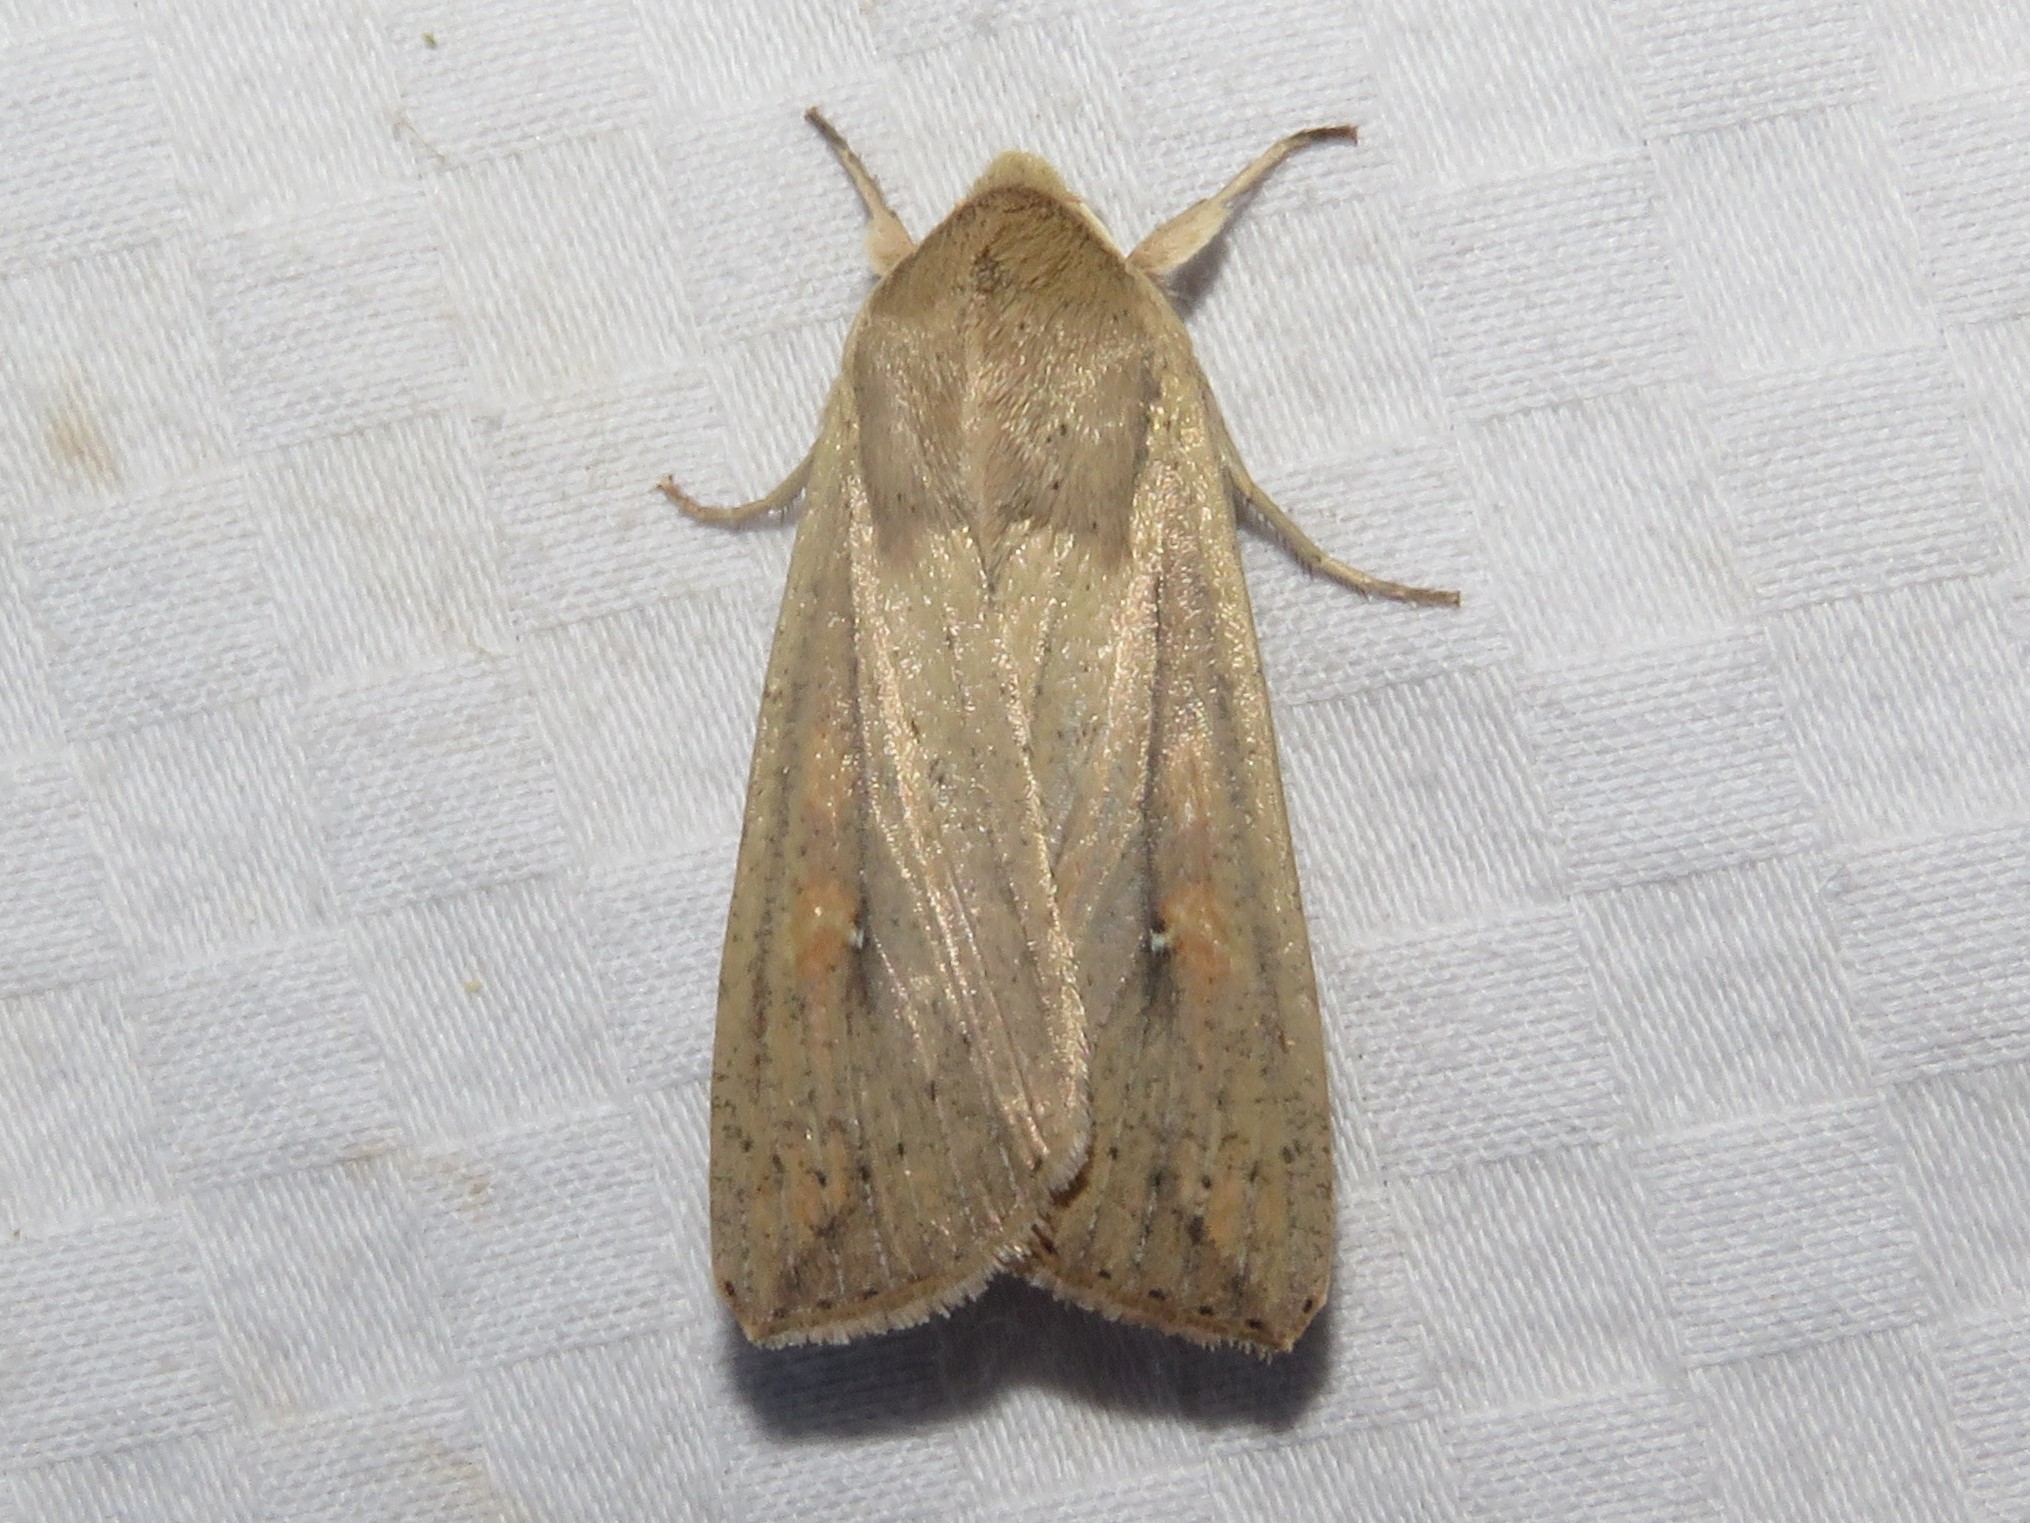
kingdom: Animalia
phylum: Arthropoda
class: Insecta
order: Lepidoptera
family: Noctuidae
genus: Mythimna
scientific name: Mythimna unipuncta
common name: White-speck
